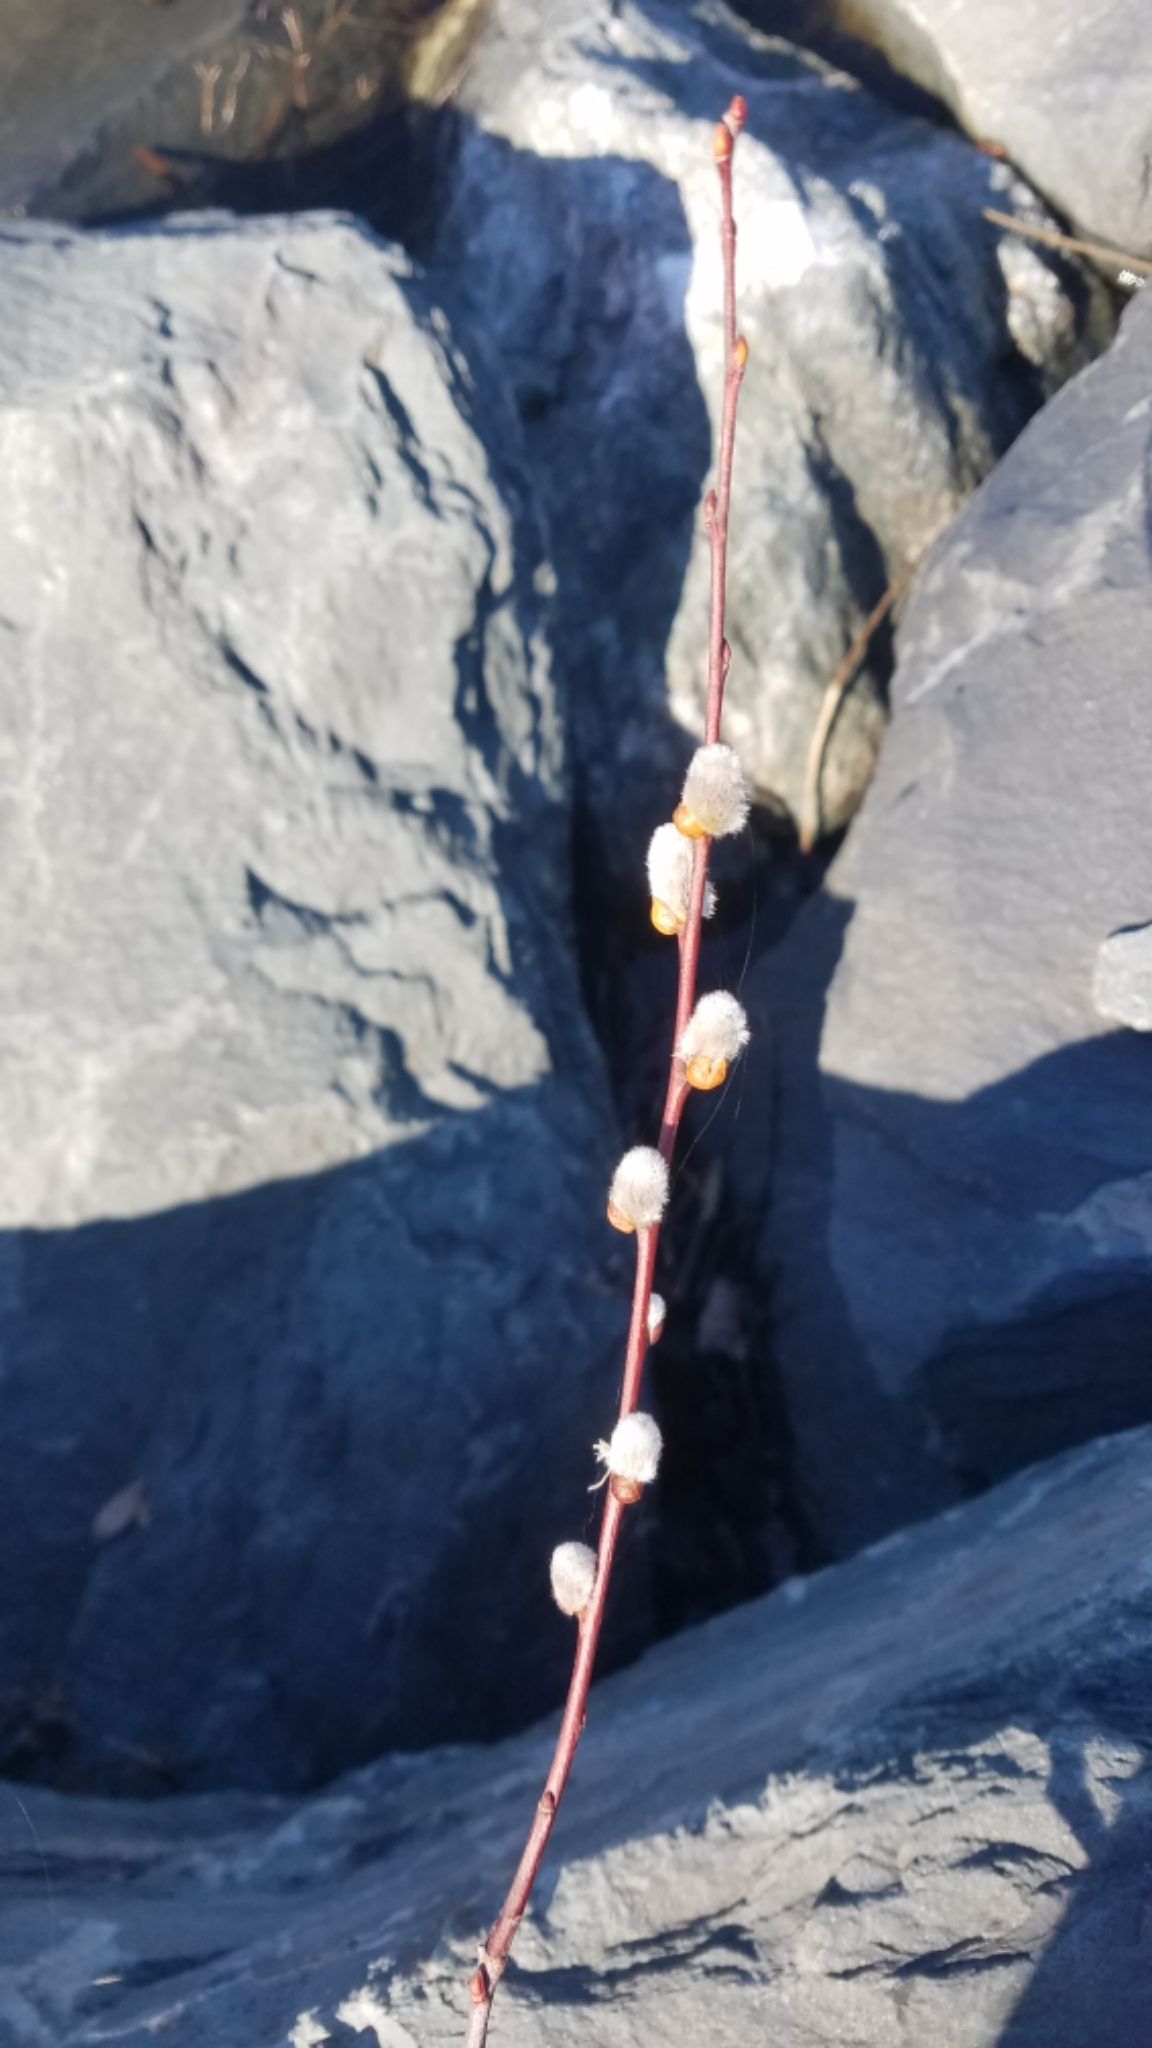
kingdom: Plantae
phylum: Tracheophyta
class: Magnoliopsida
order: Malpighiales
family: Salicaceae
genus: Salix
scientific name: Salix discolor
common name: Glaucous willow
